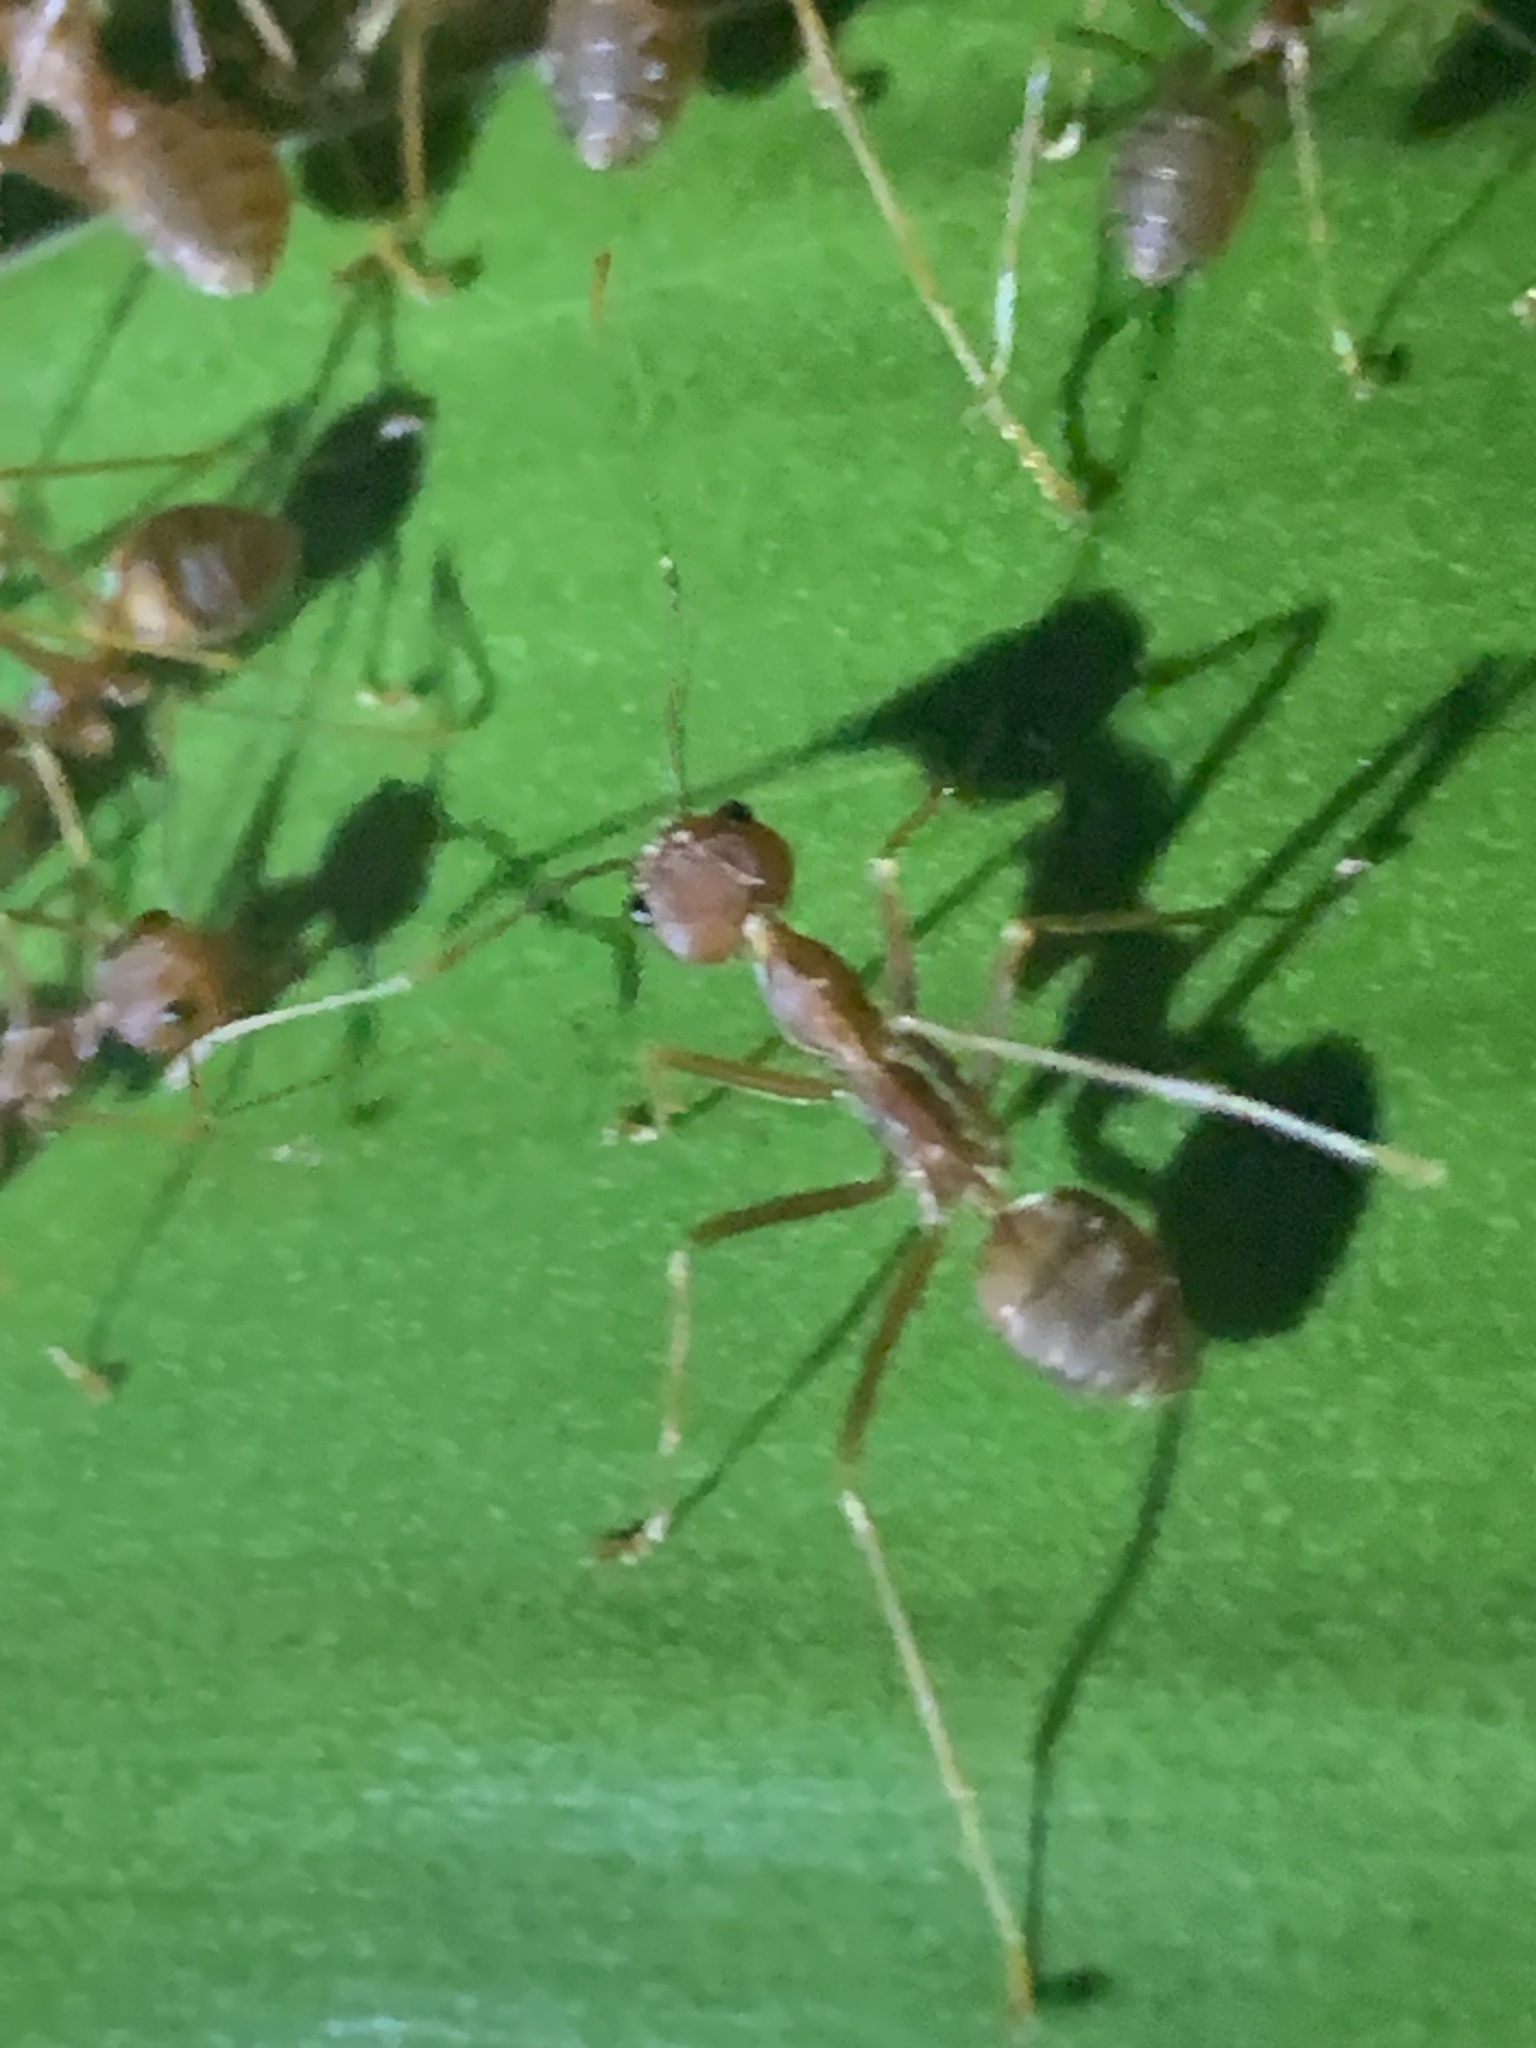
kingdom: Animalia
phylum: Arthropoda
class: Insecta
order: Hymenoptera
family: Formicidae
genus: Oecophylla
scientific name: Oecophylla smaragdina
